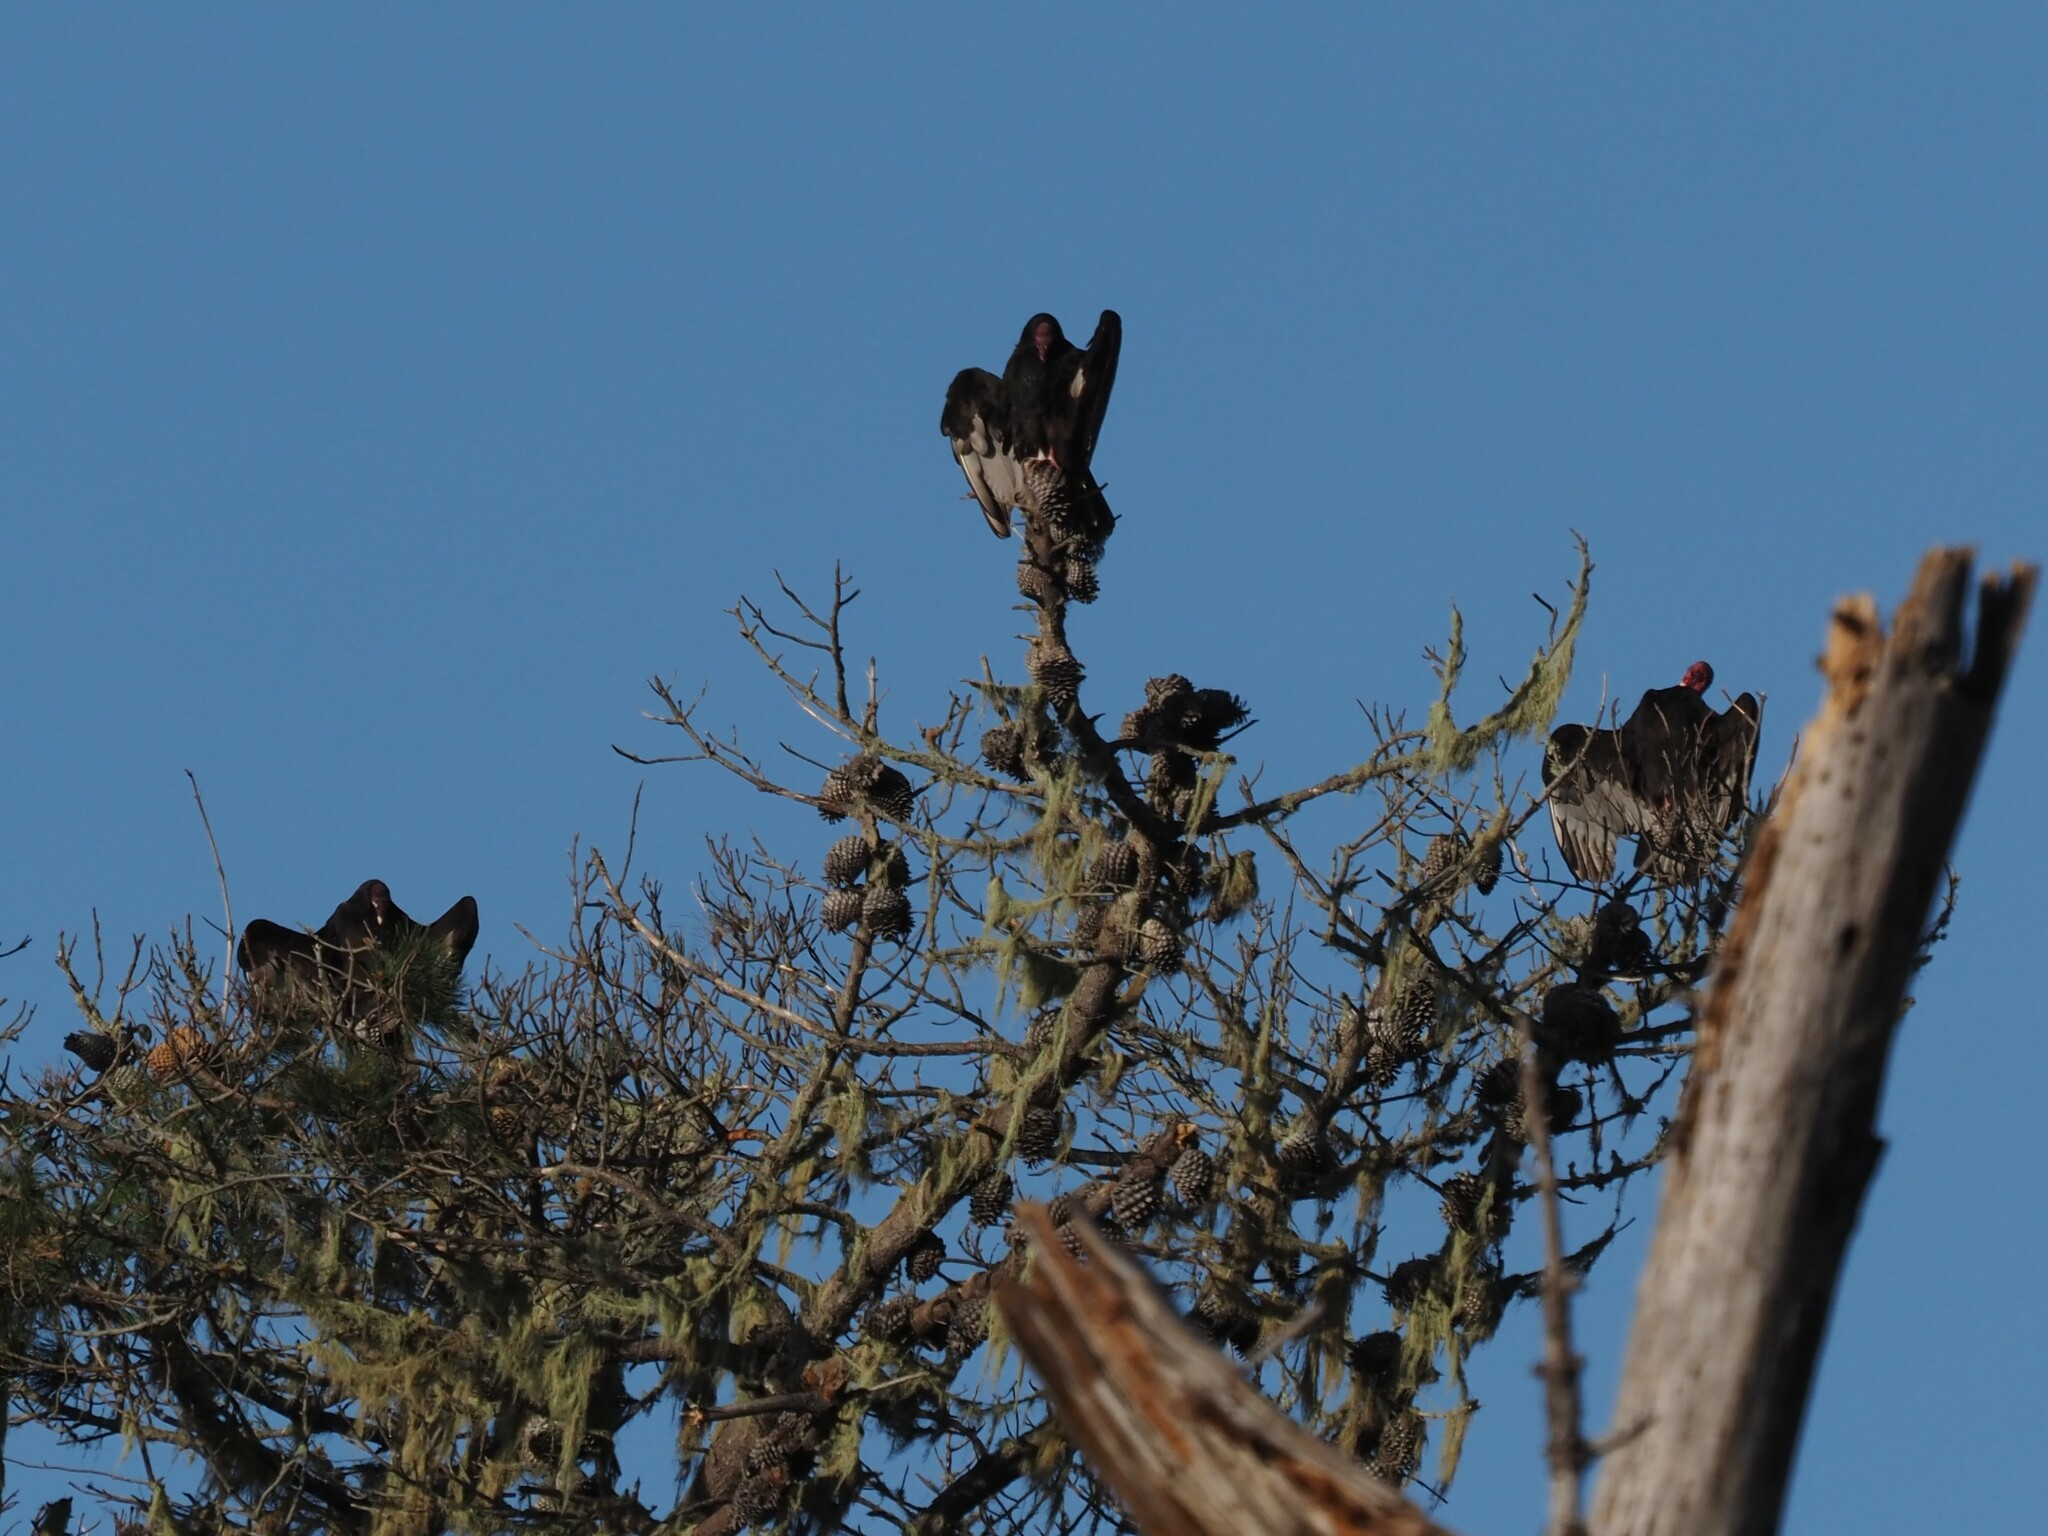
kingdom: Animalia
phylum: Chordata
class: Aves
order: Accipitriformes
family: Cathartidae
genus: Cathartes
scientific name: Cathartes aura
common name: Turkey vulture
